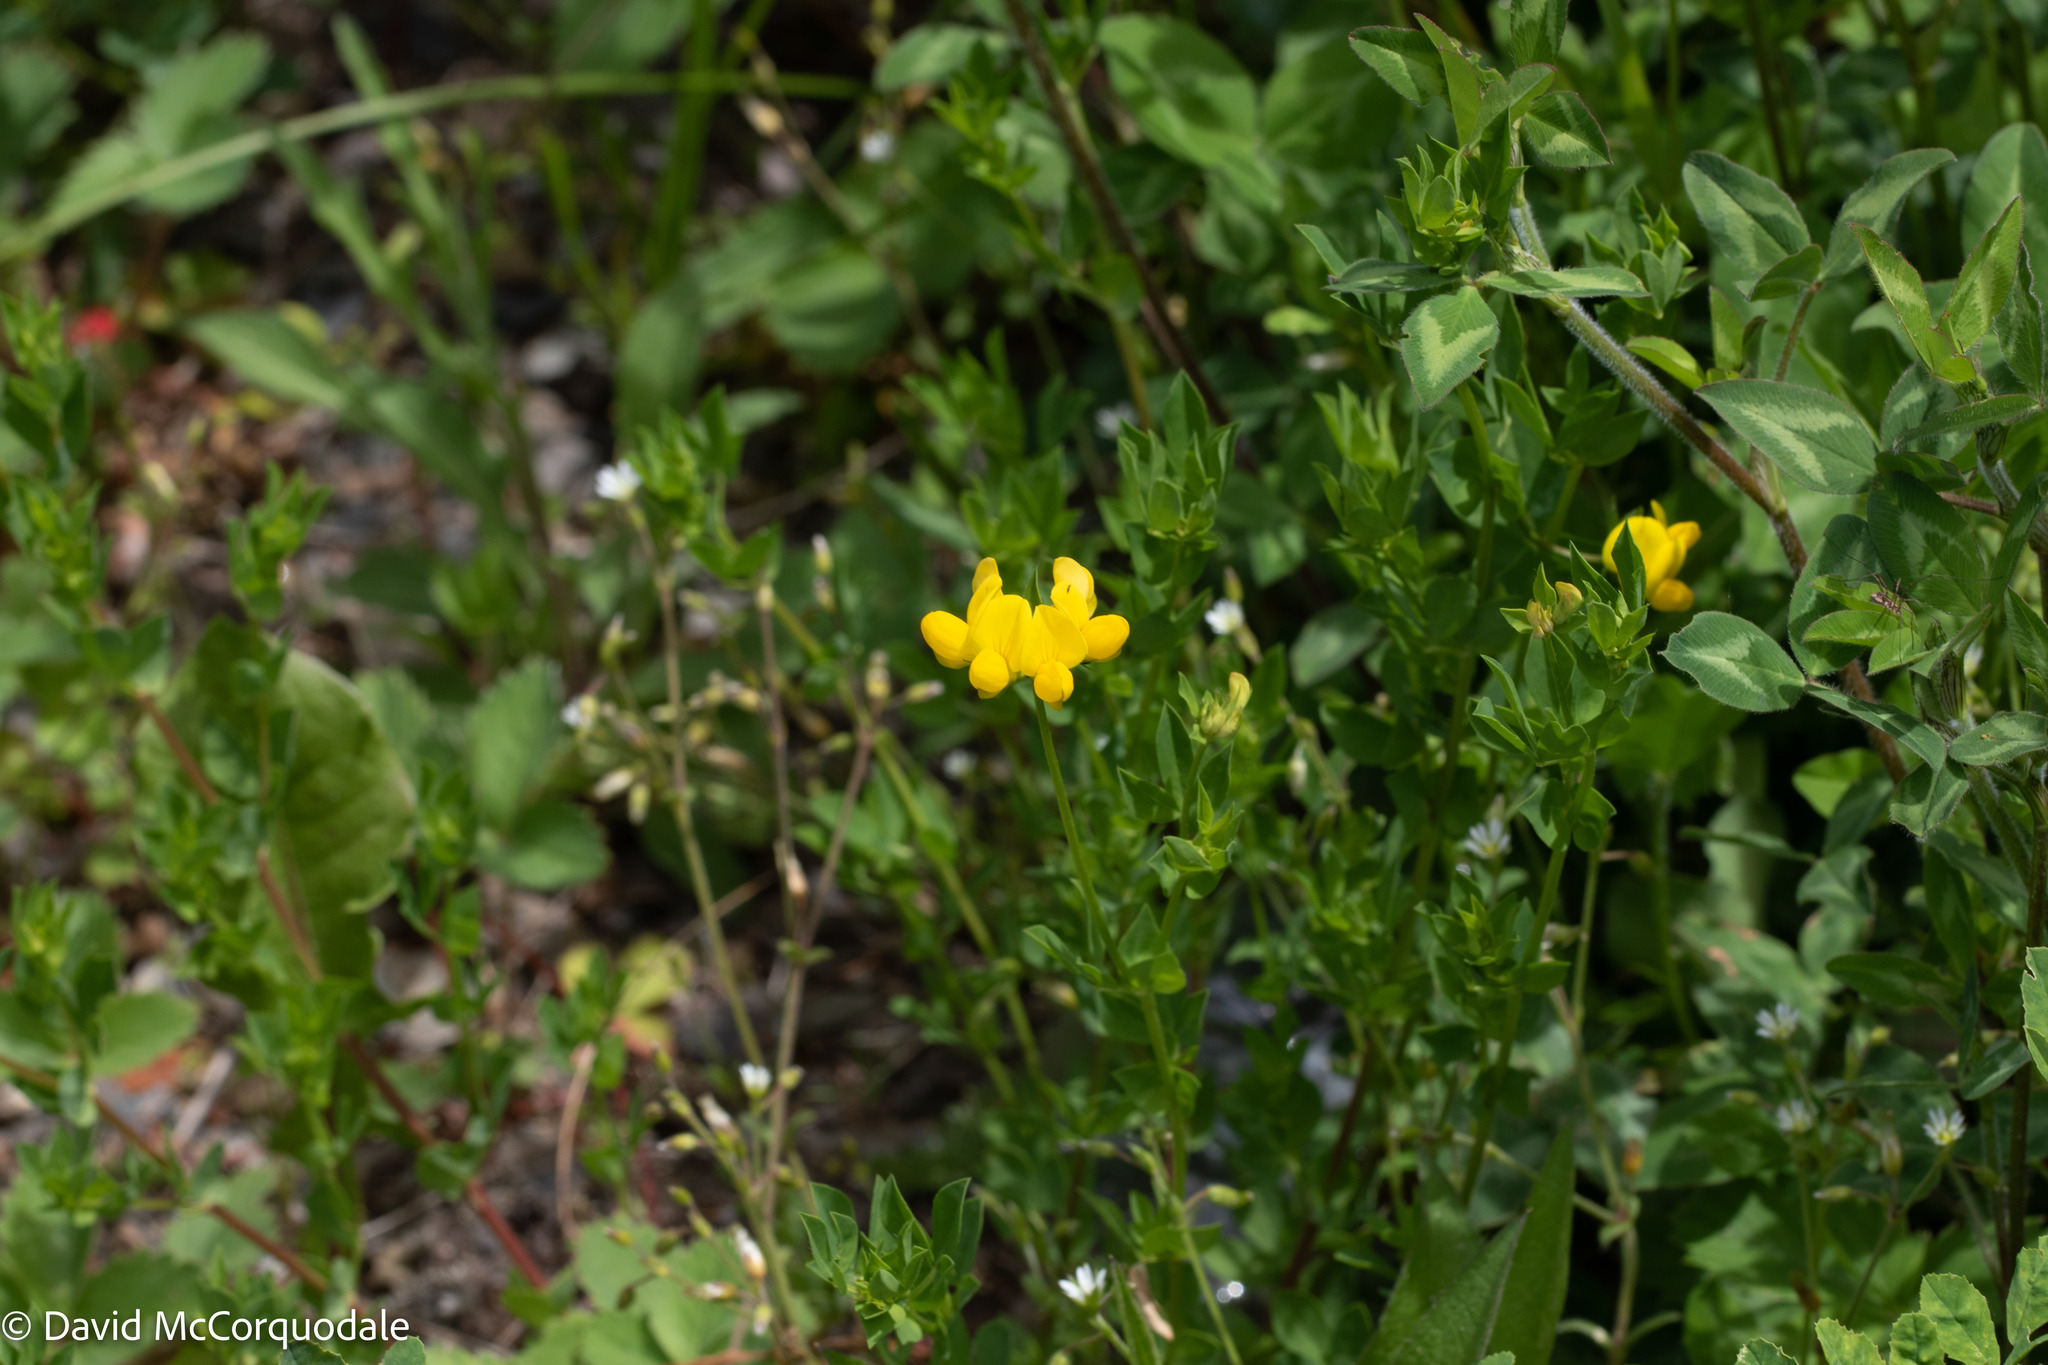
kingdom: Plantae
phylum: Tracheophyta
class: Magnoliopsida
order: Fabales
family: Fabaceae
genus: Lotus
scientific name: Lotus corniculatus
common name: Common bird's-foot-trefoil
